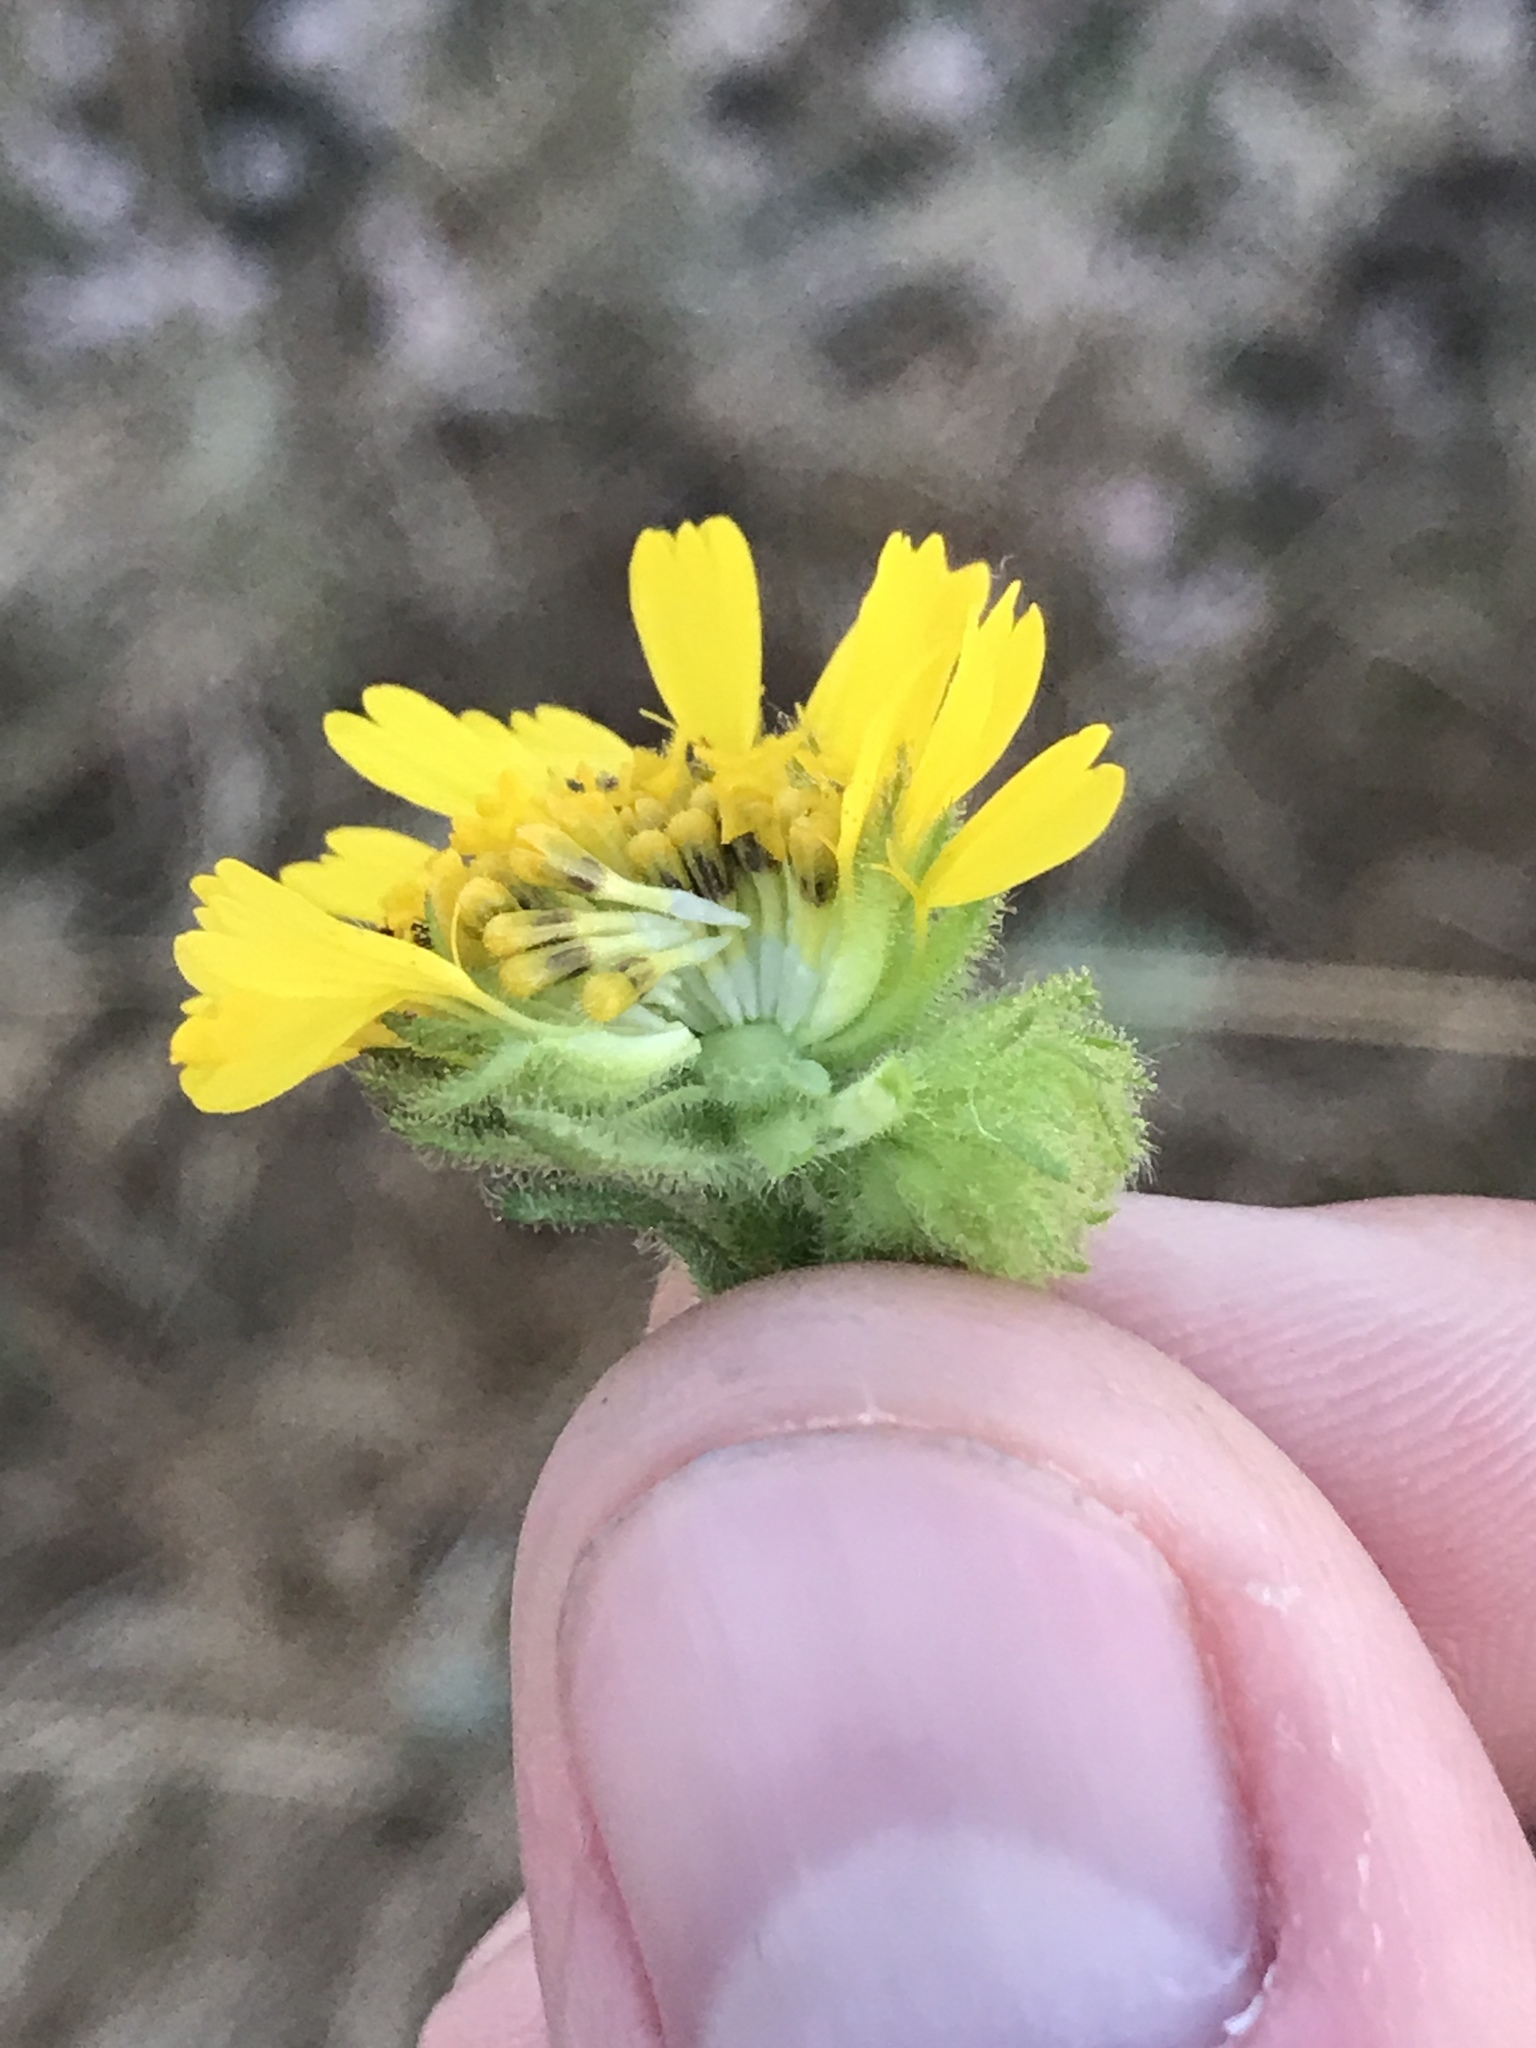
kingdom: Plantae
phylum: Tracheophyta
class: Magnoliopsida
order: Asterales
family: Asteraceae
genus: Deinandra
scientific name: Deinandra corymbosa
